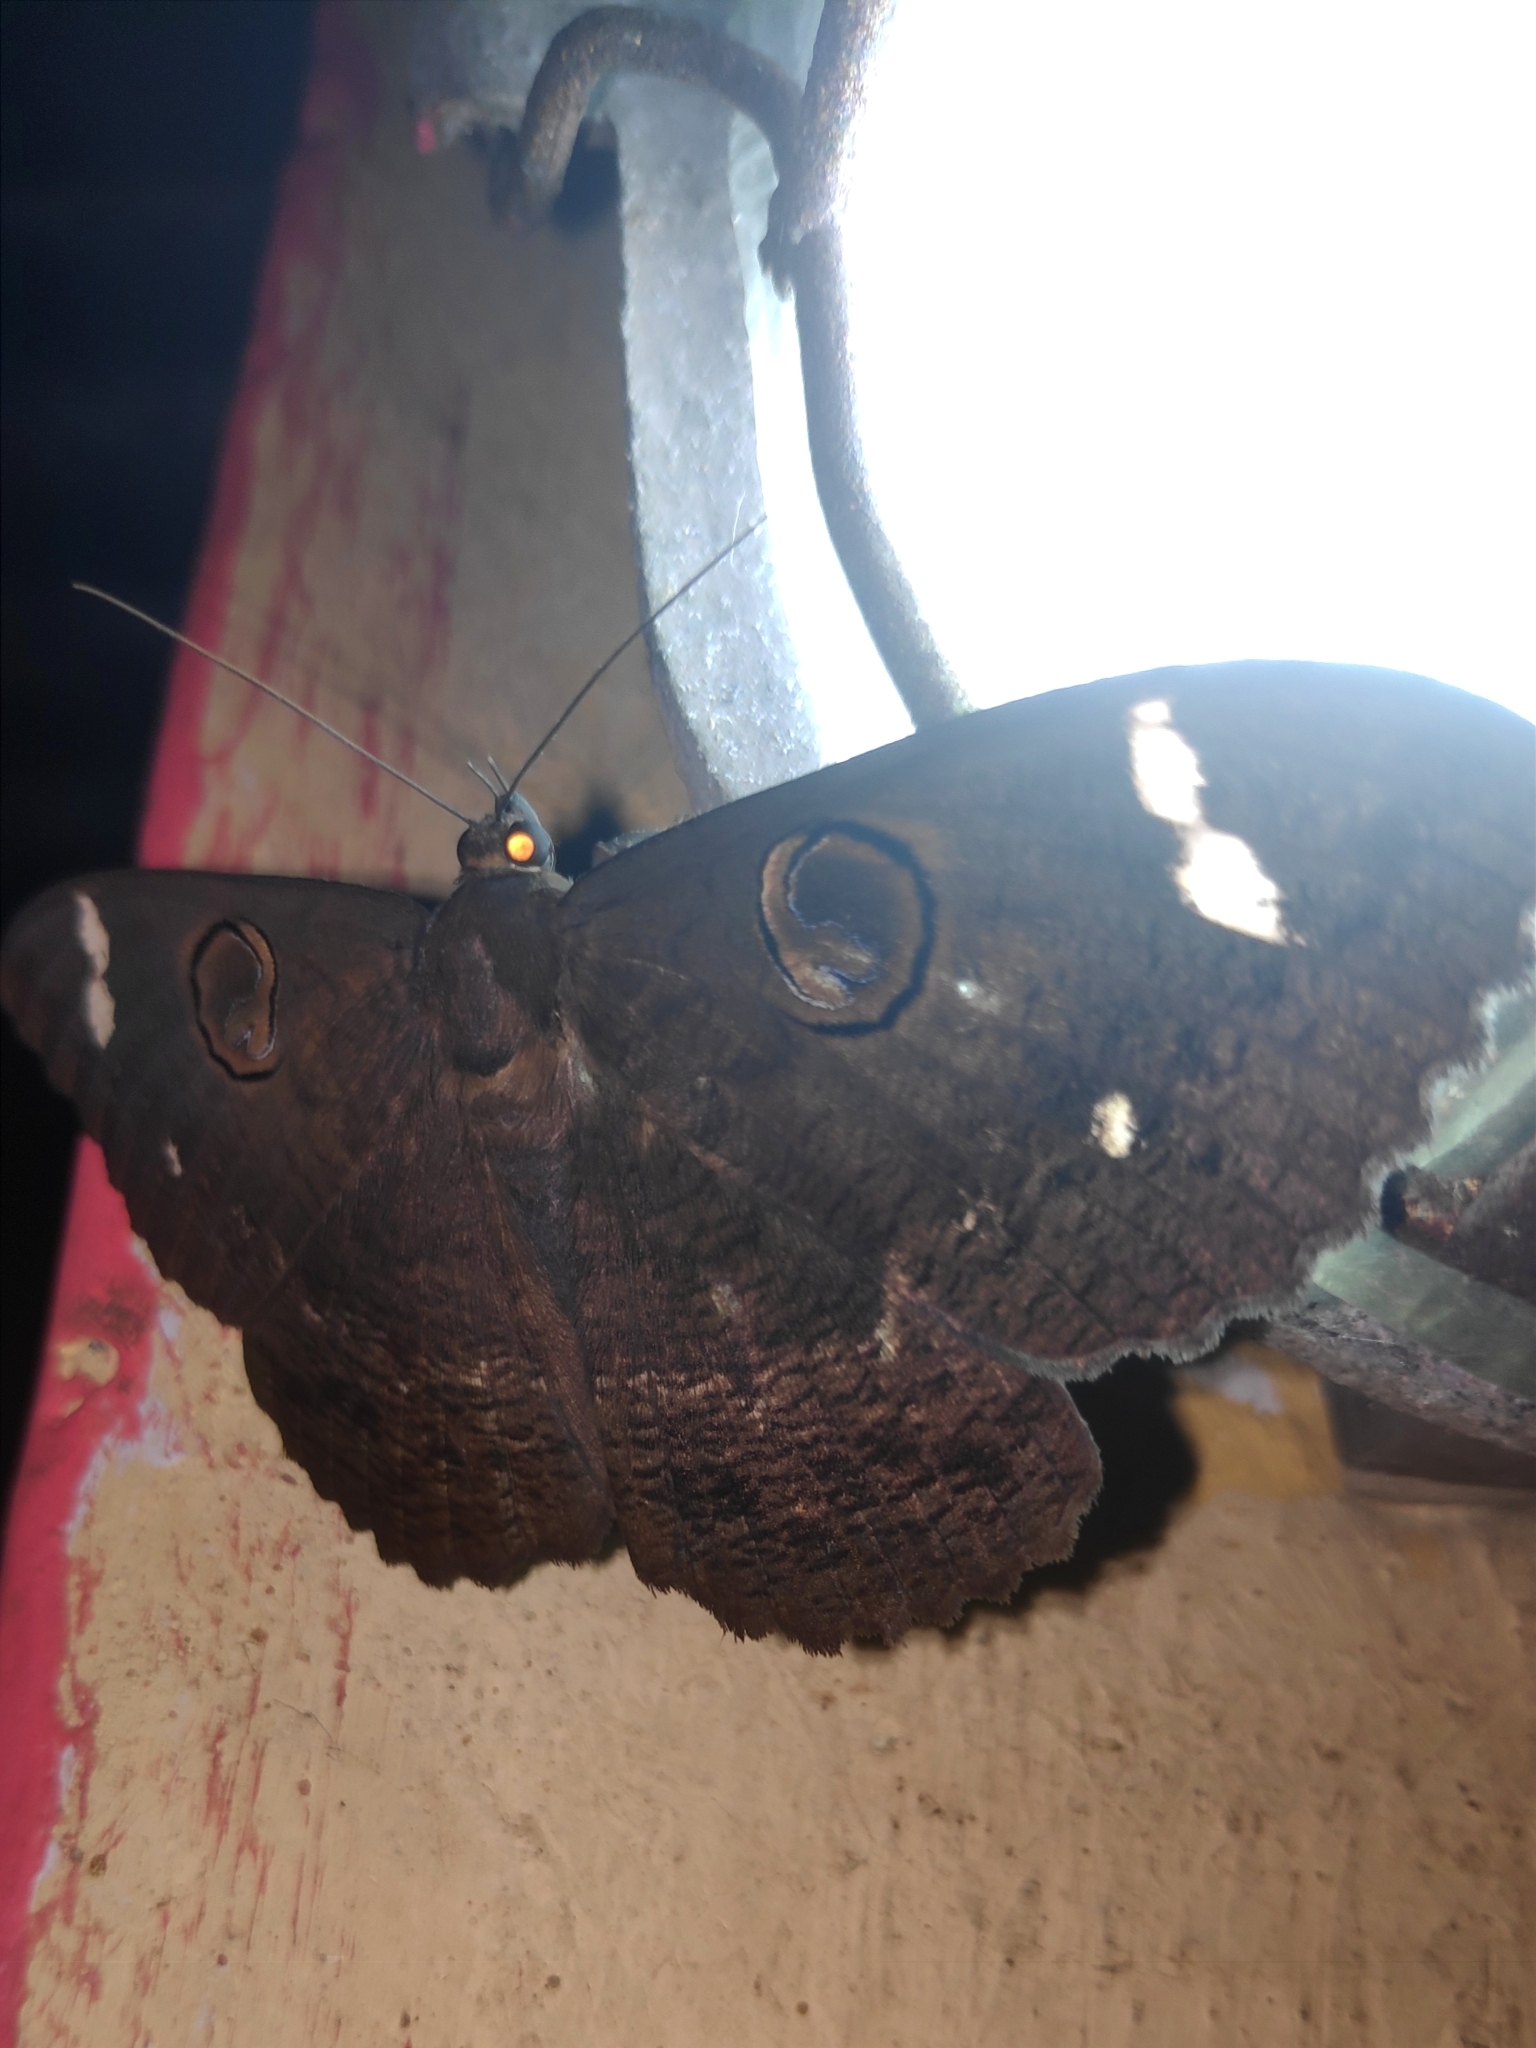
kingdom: Animalia
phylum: Arthropoda
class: Insecta
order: Lepidoptera
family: Erebidae
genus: Erebus
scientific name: Erebus hieroglyphica
